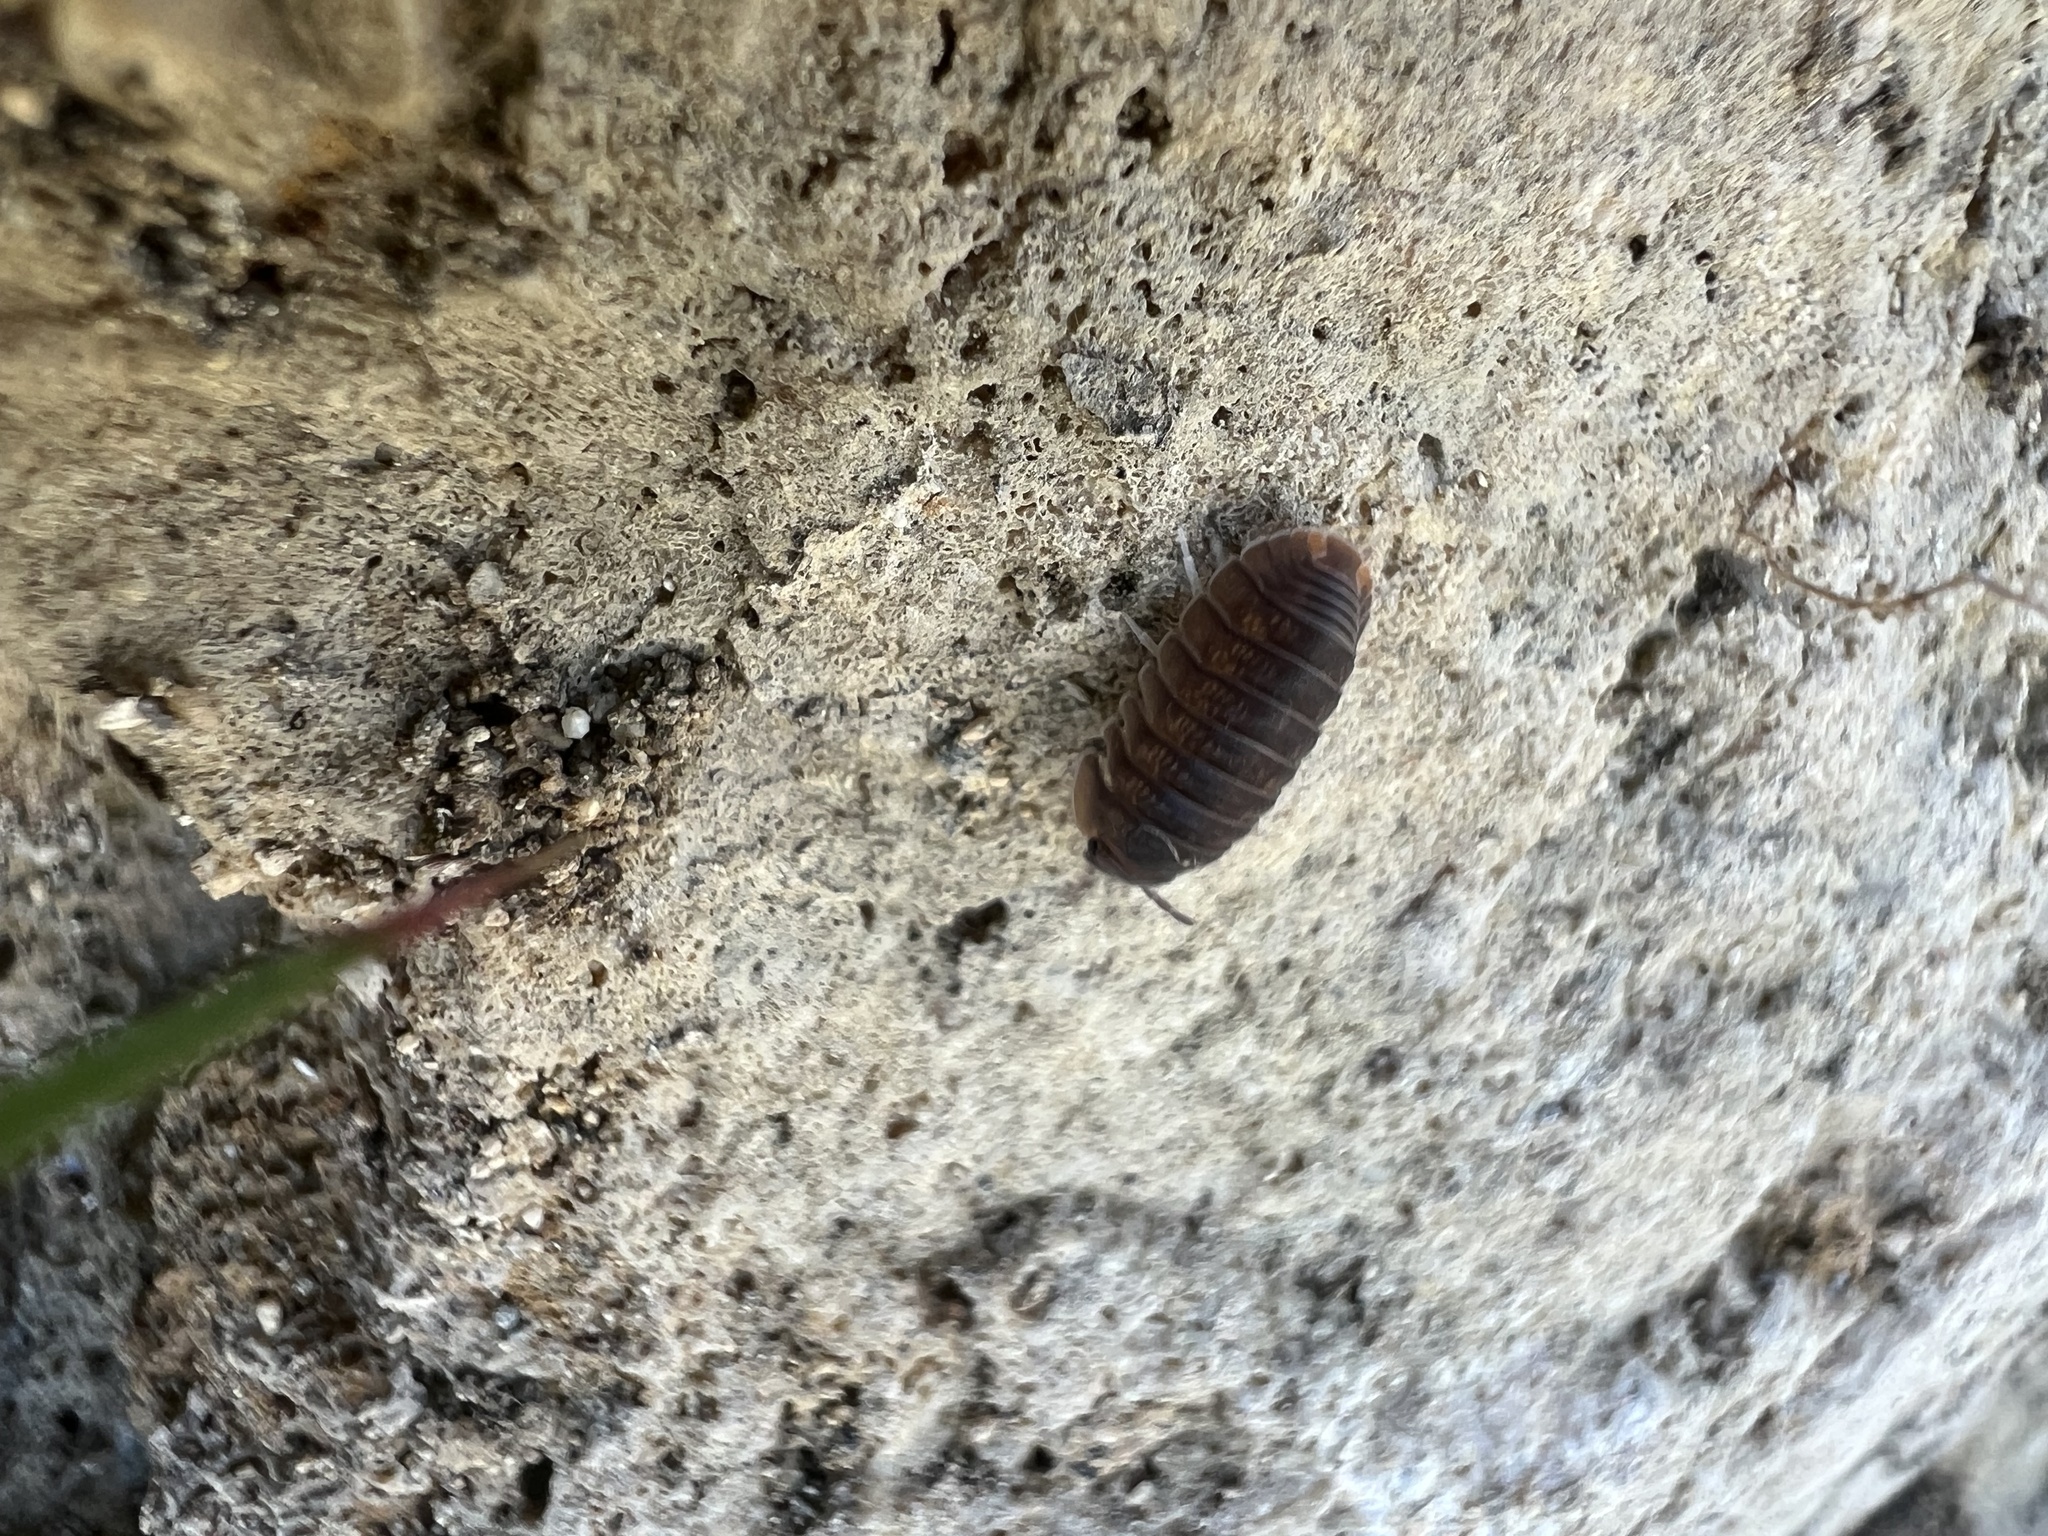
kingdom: Animalia
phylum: Arthropoda
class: Malacostraca
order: Isopoda
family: Armadillidae
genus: Cubaris
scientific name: Cubaris murina
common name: Pillbug
